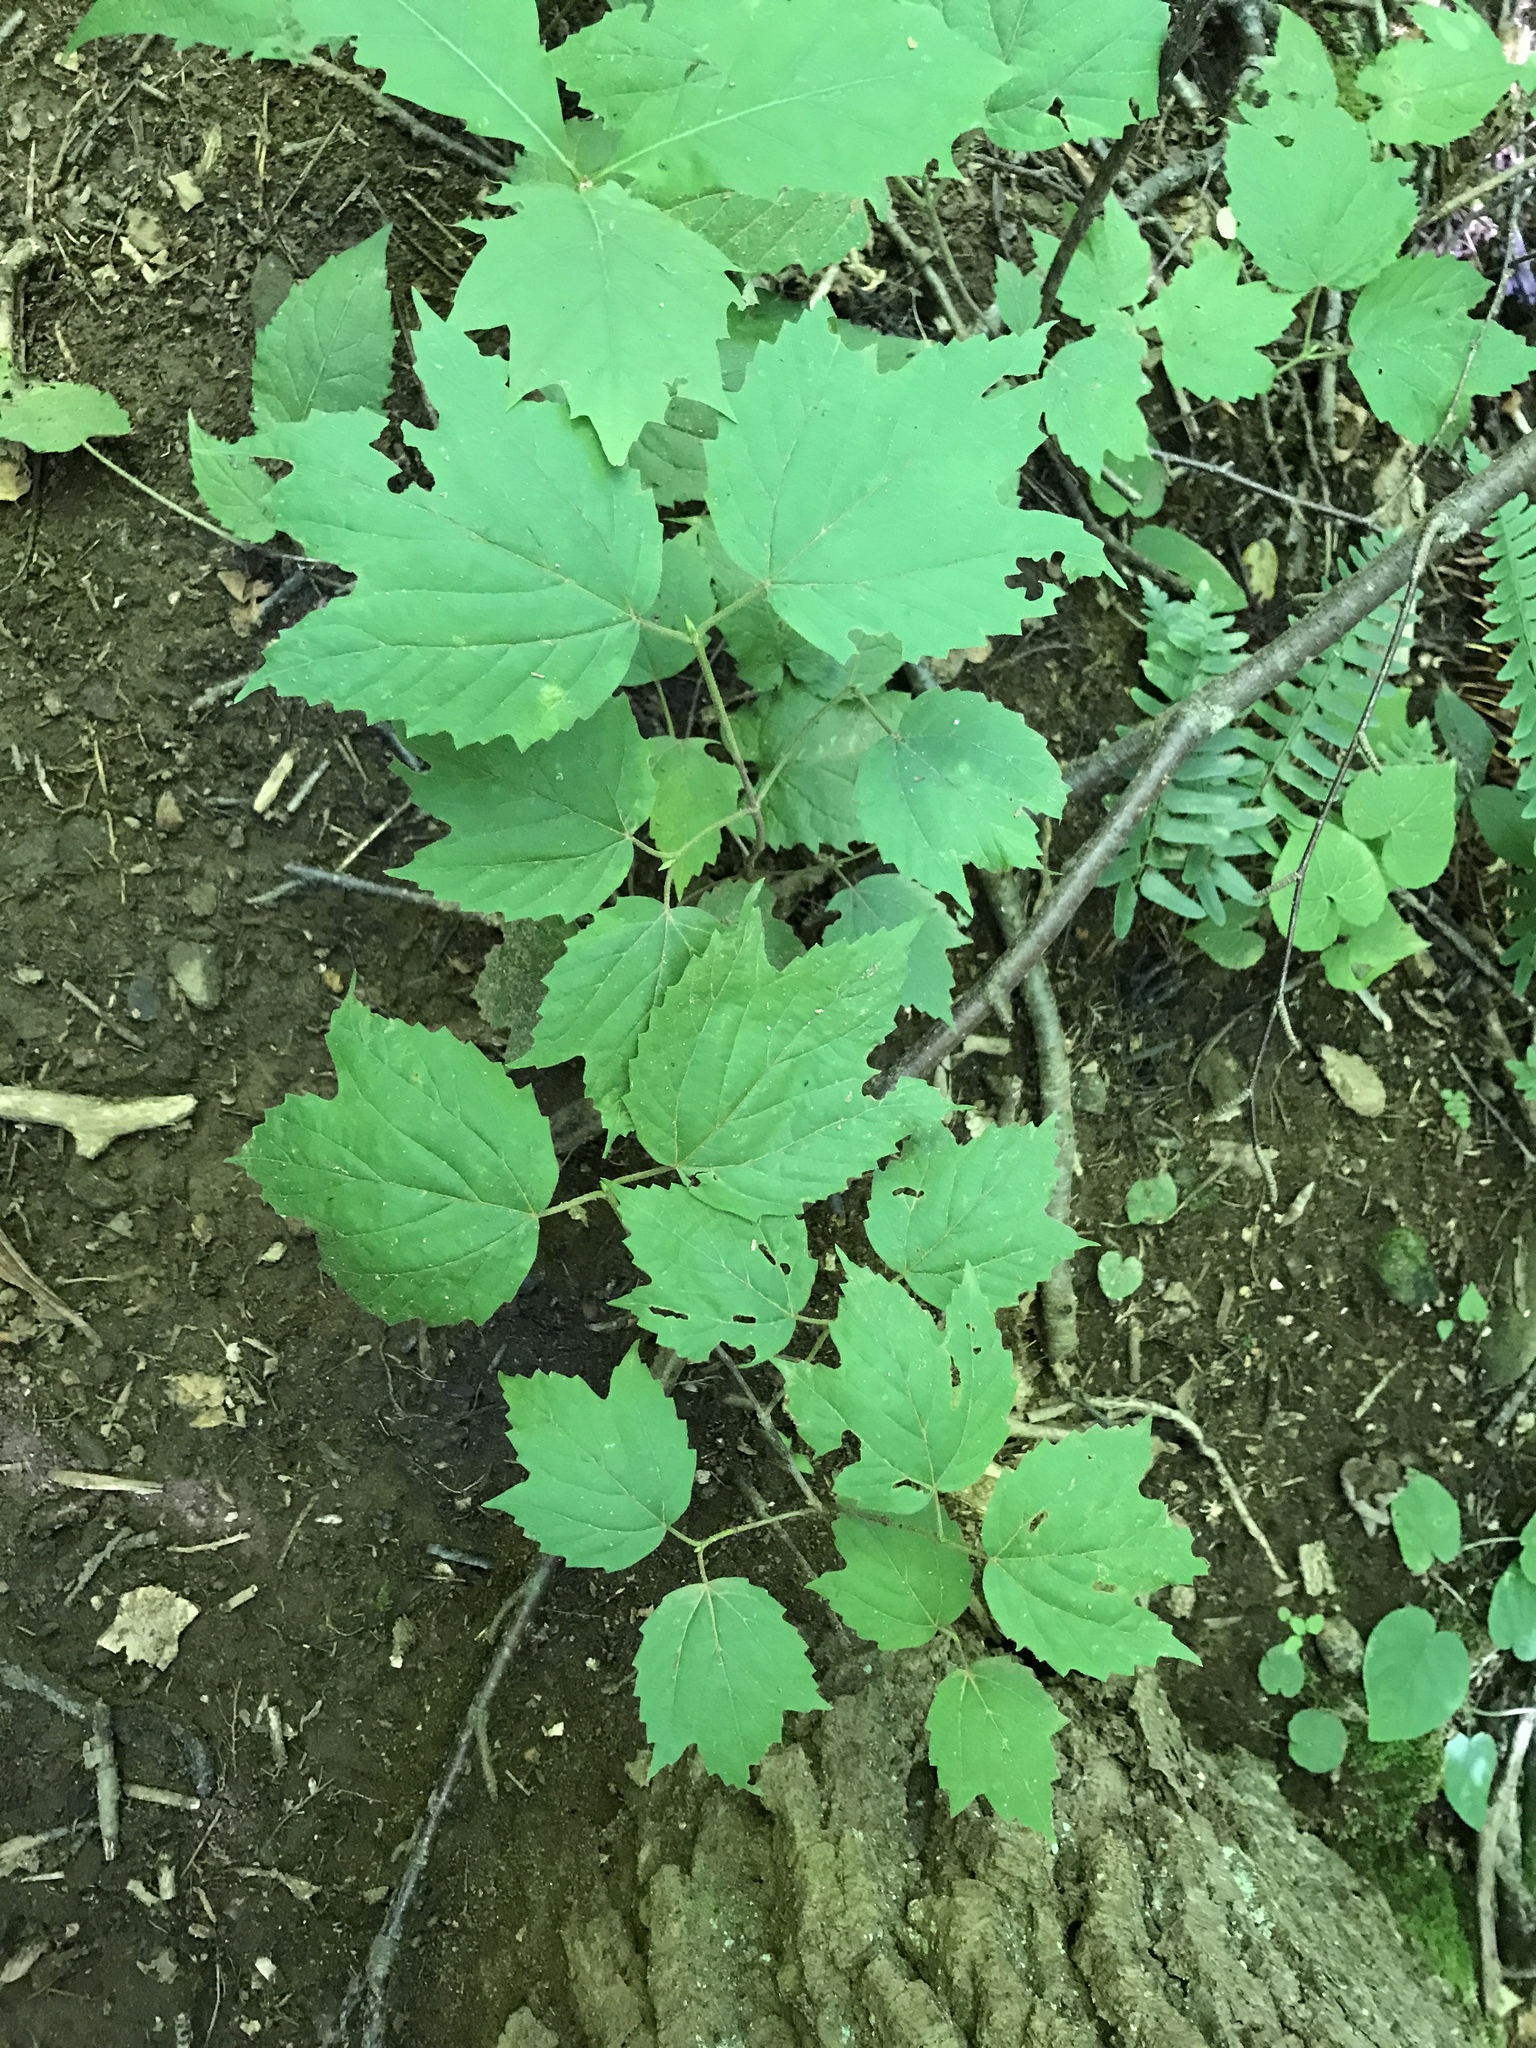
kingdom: Plantae
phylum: Tracheophyta
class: Magnoliopsida
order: Dipsacales
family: Viburnaceae
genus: Viburnum
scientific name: Viburnum acerifolium
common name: Dockmackie
